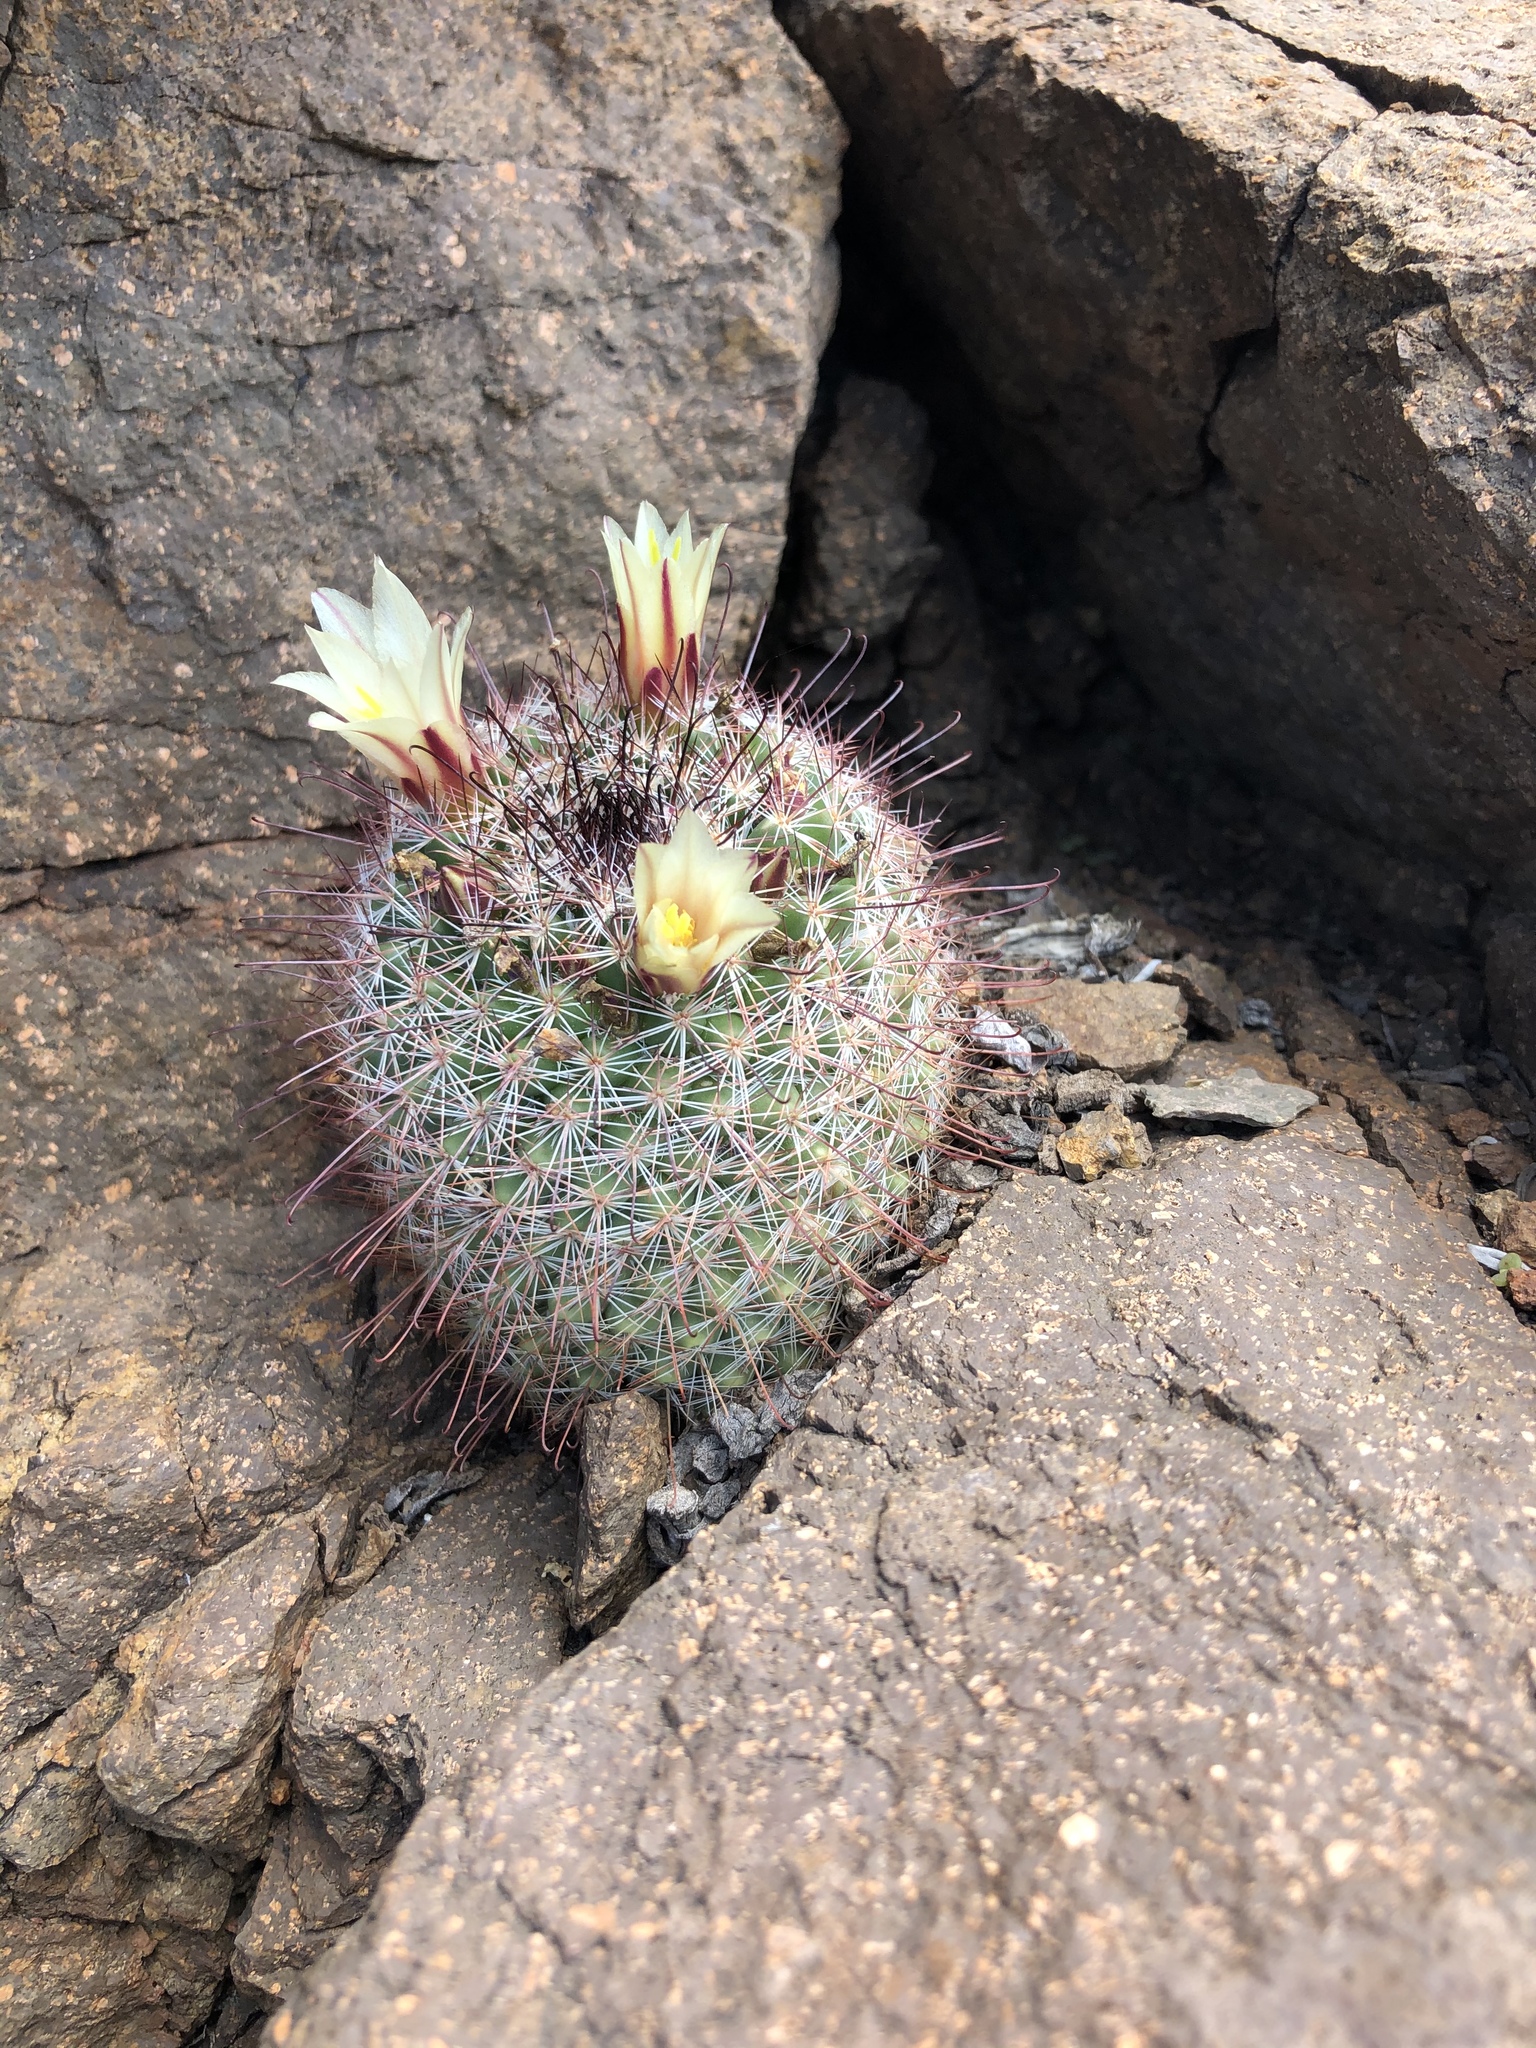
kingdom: Plantae
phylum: Tracheophyta
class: Magnoliopsida
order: Caryophyllales
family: Cactaceae
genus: Cochemiea
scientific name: Cochemiea dioica
